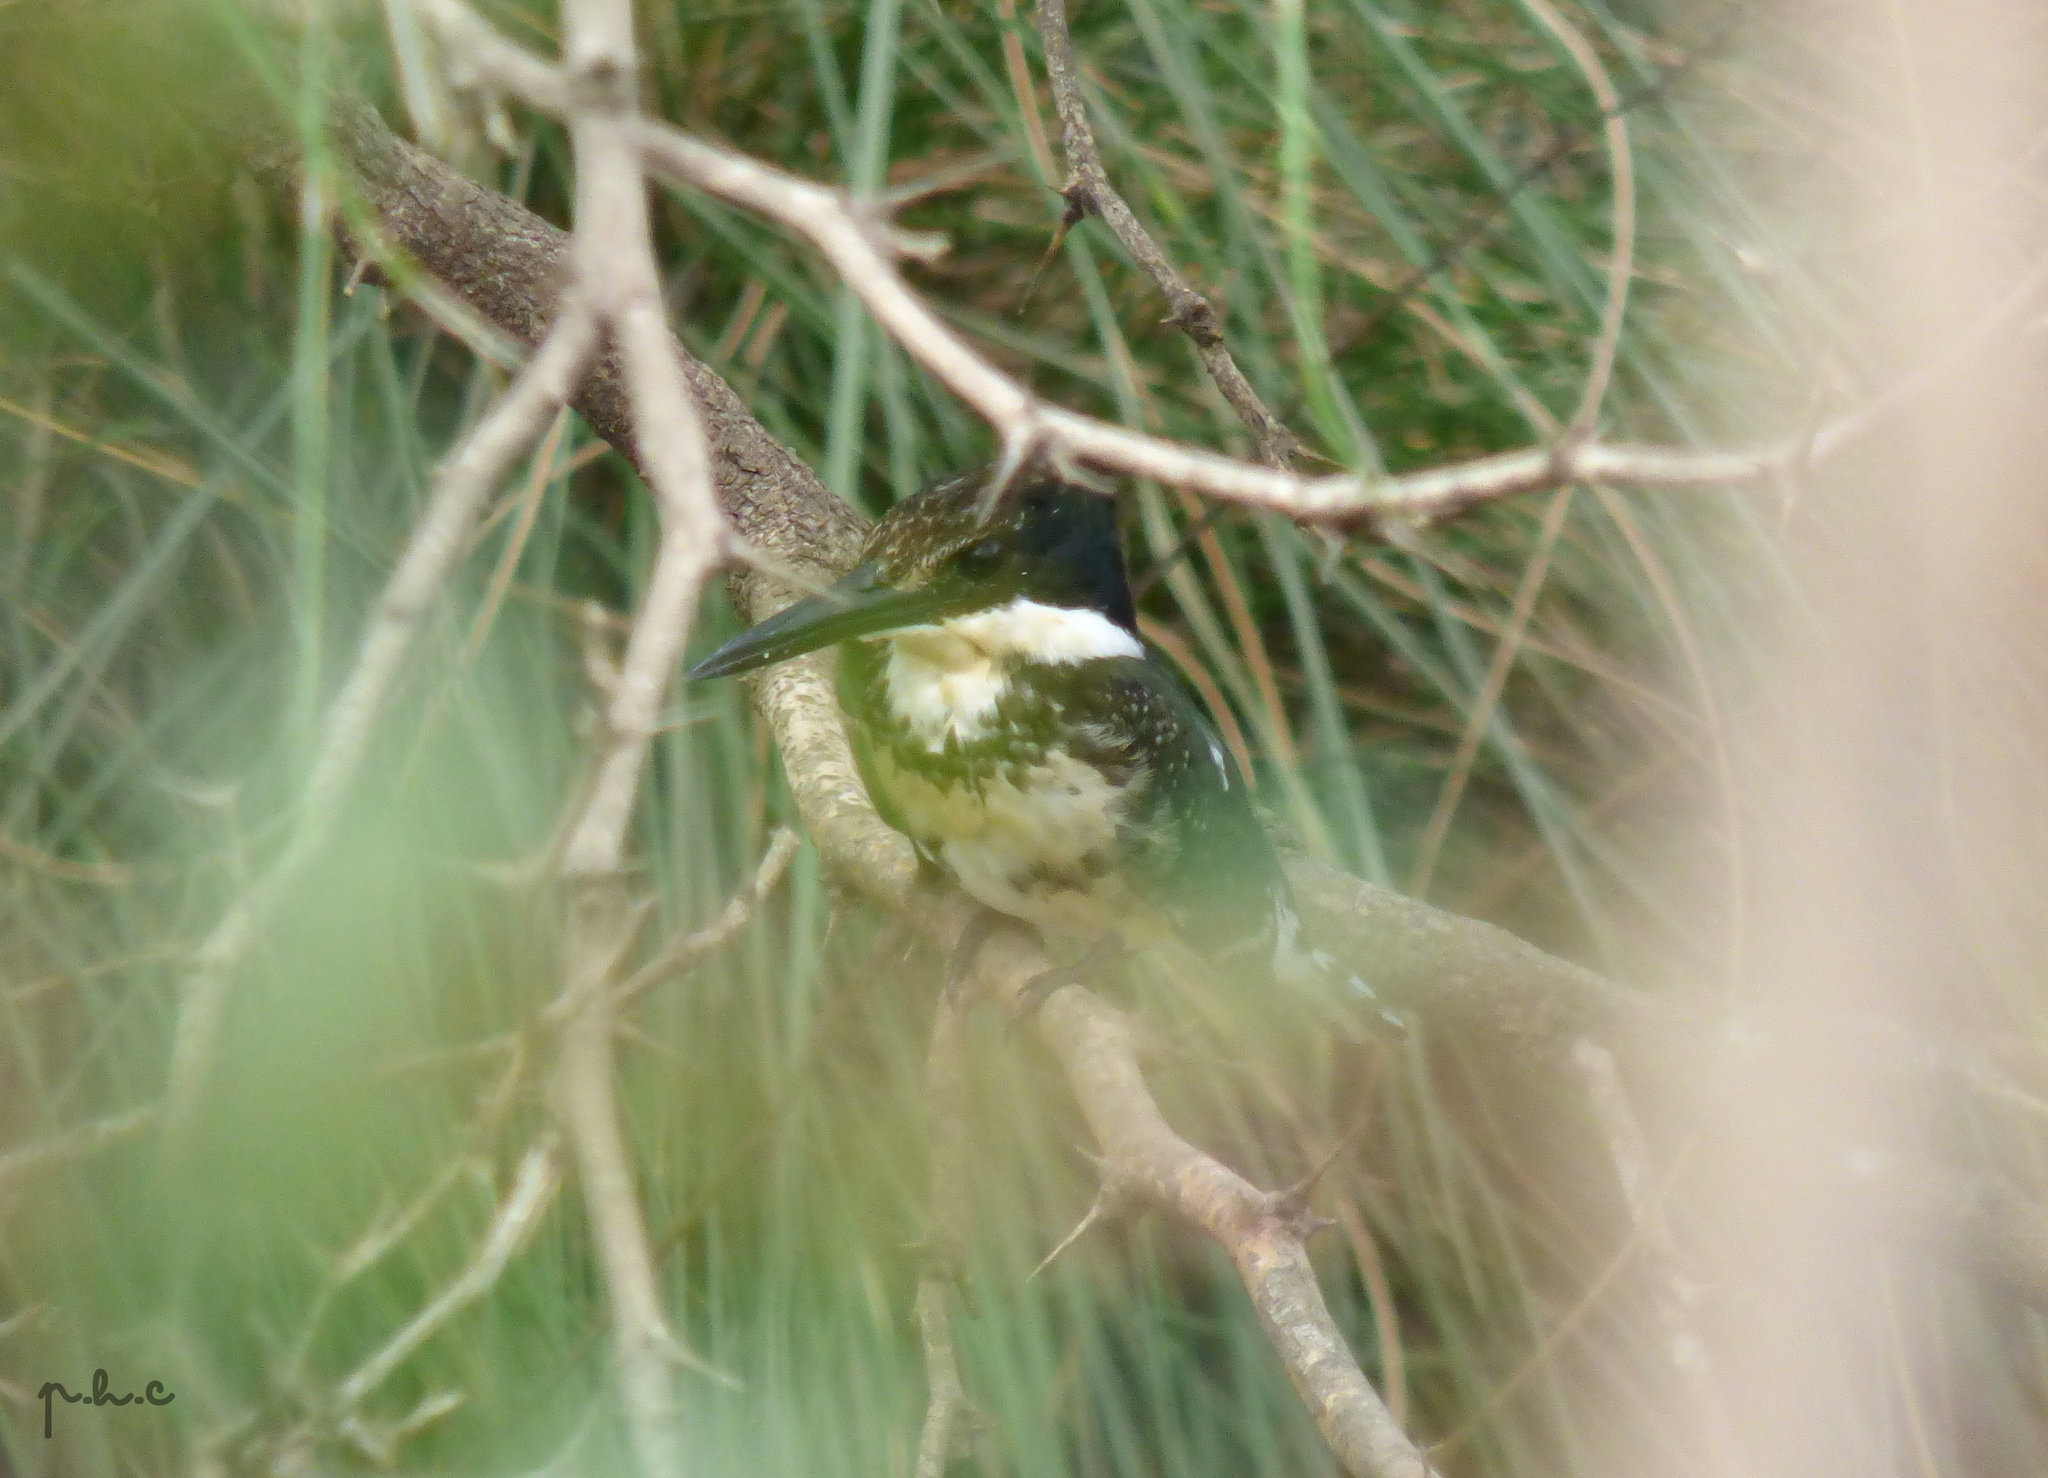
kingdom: Animalia
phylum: Chordata
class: Aves
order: Coraciiformes
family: Alcedinidae
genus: Chloroceryle
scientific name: Chloroceryle americana
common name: Green kingfisher
